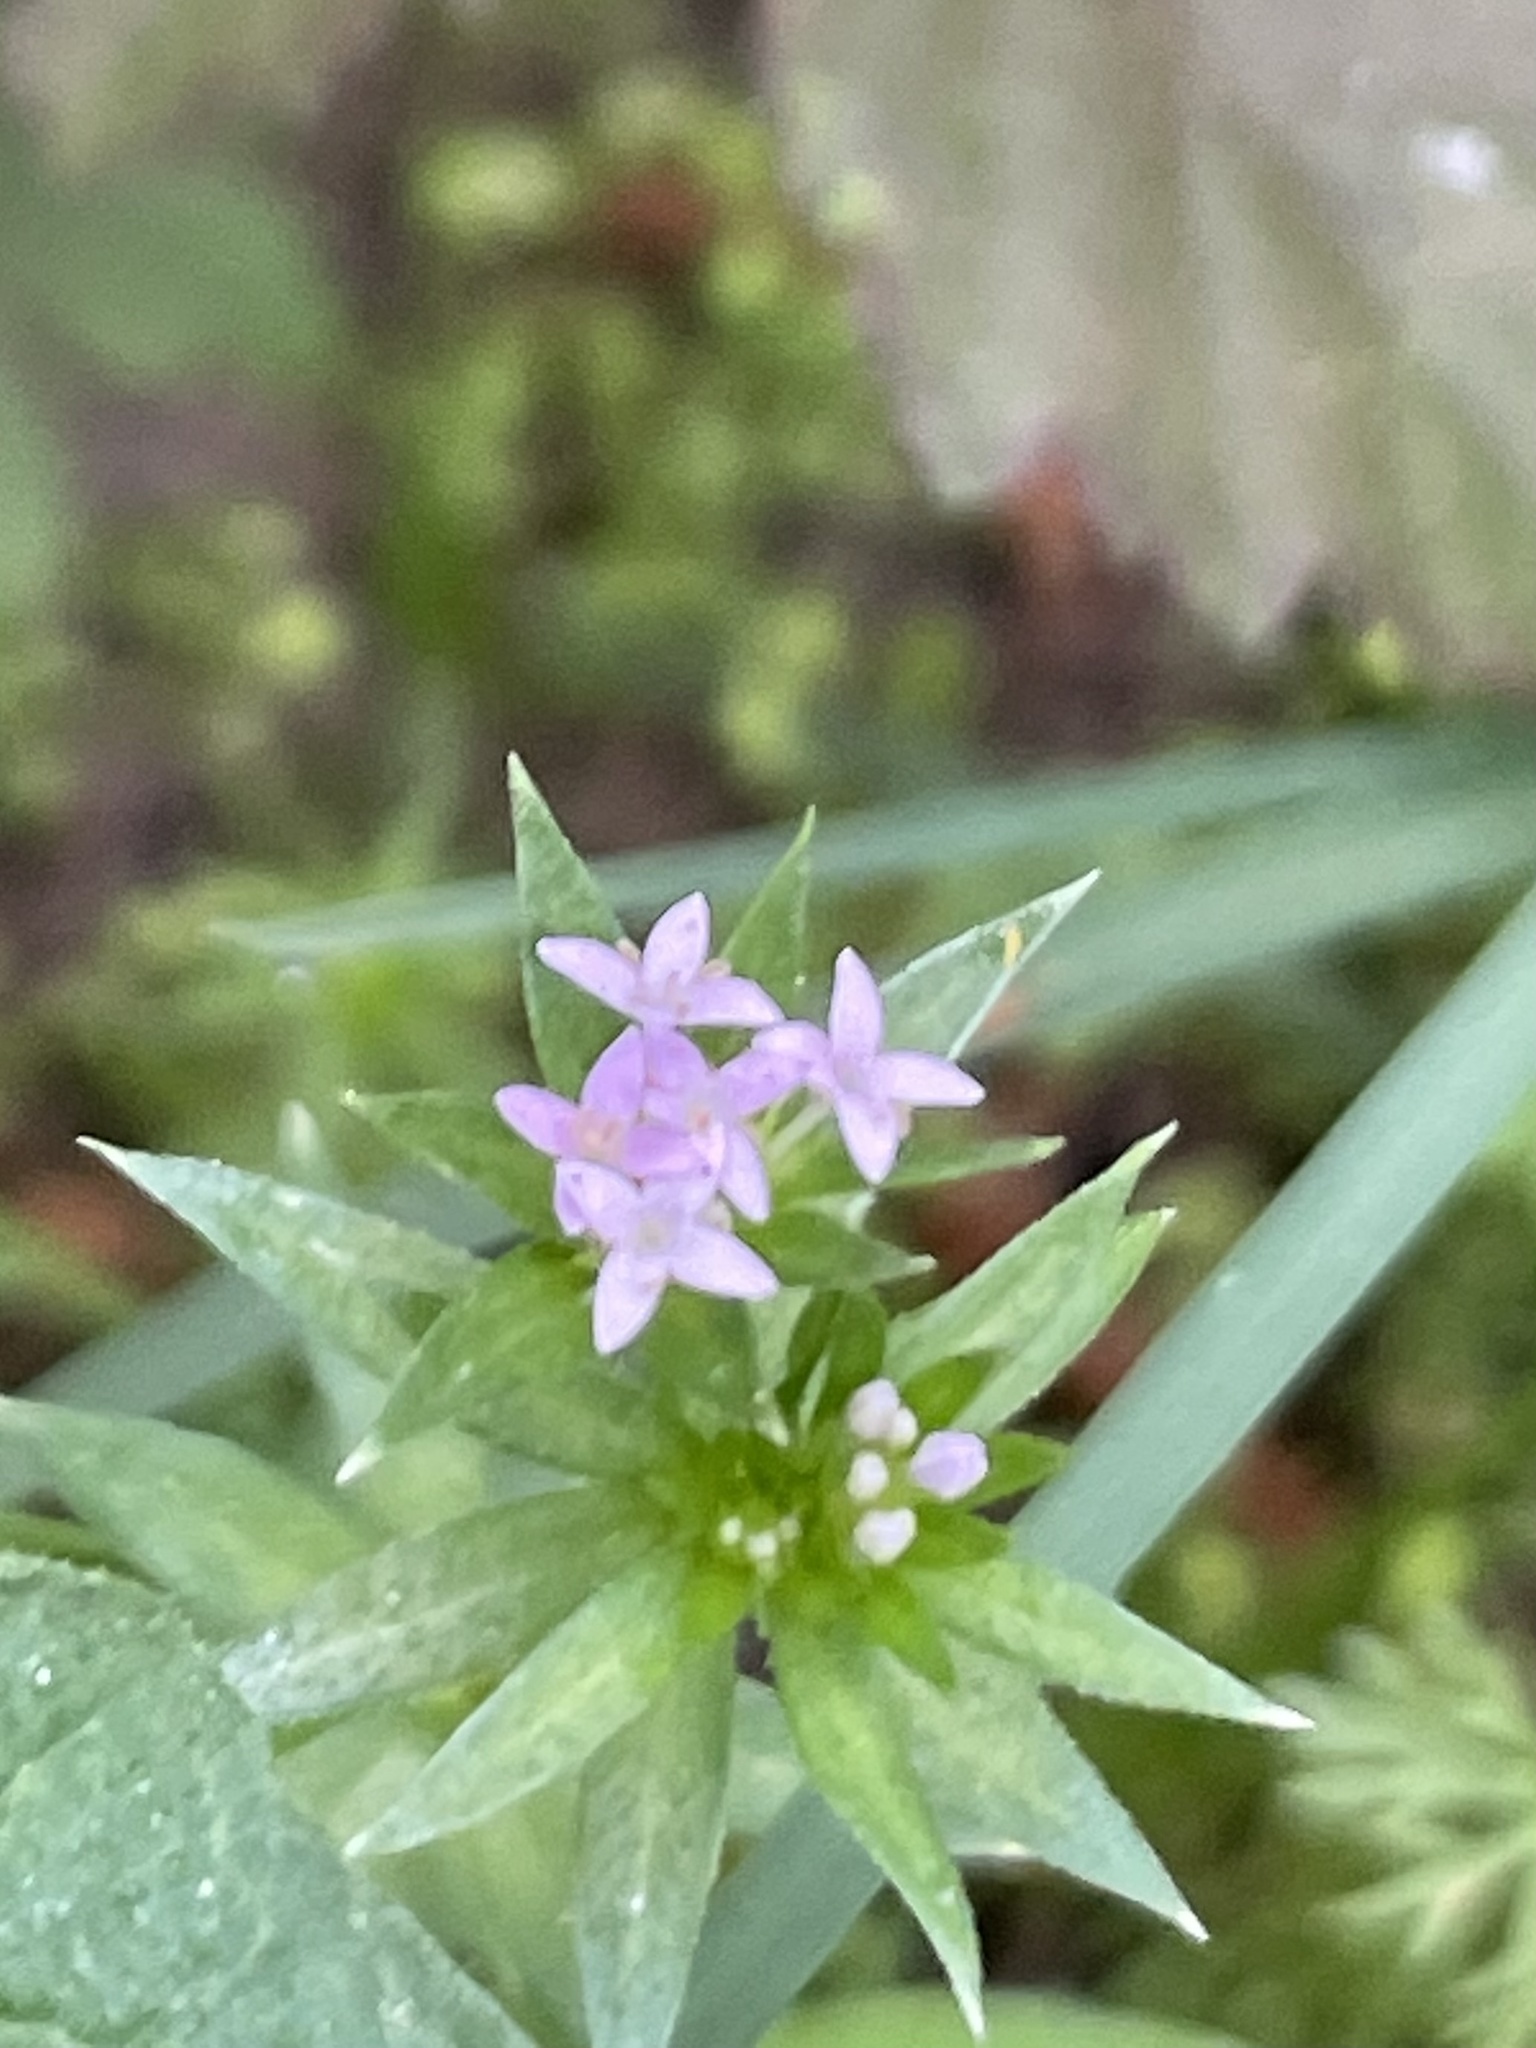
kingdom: Plantae
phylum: Tracheophyta
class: Magnoliopsida
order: Gentianales
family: Rubiaceae
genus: Sherardia
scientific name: Sherardia arvensis
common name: Field madder
